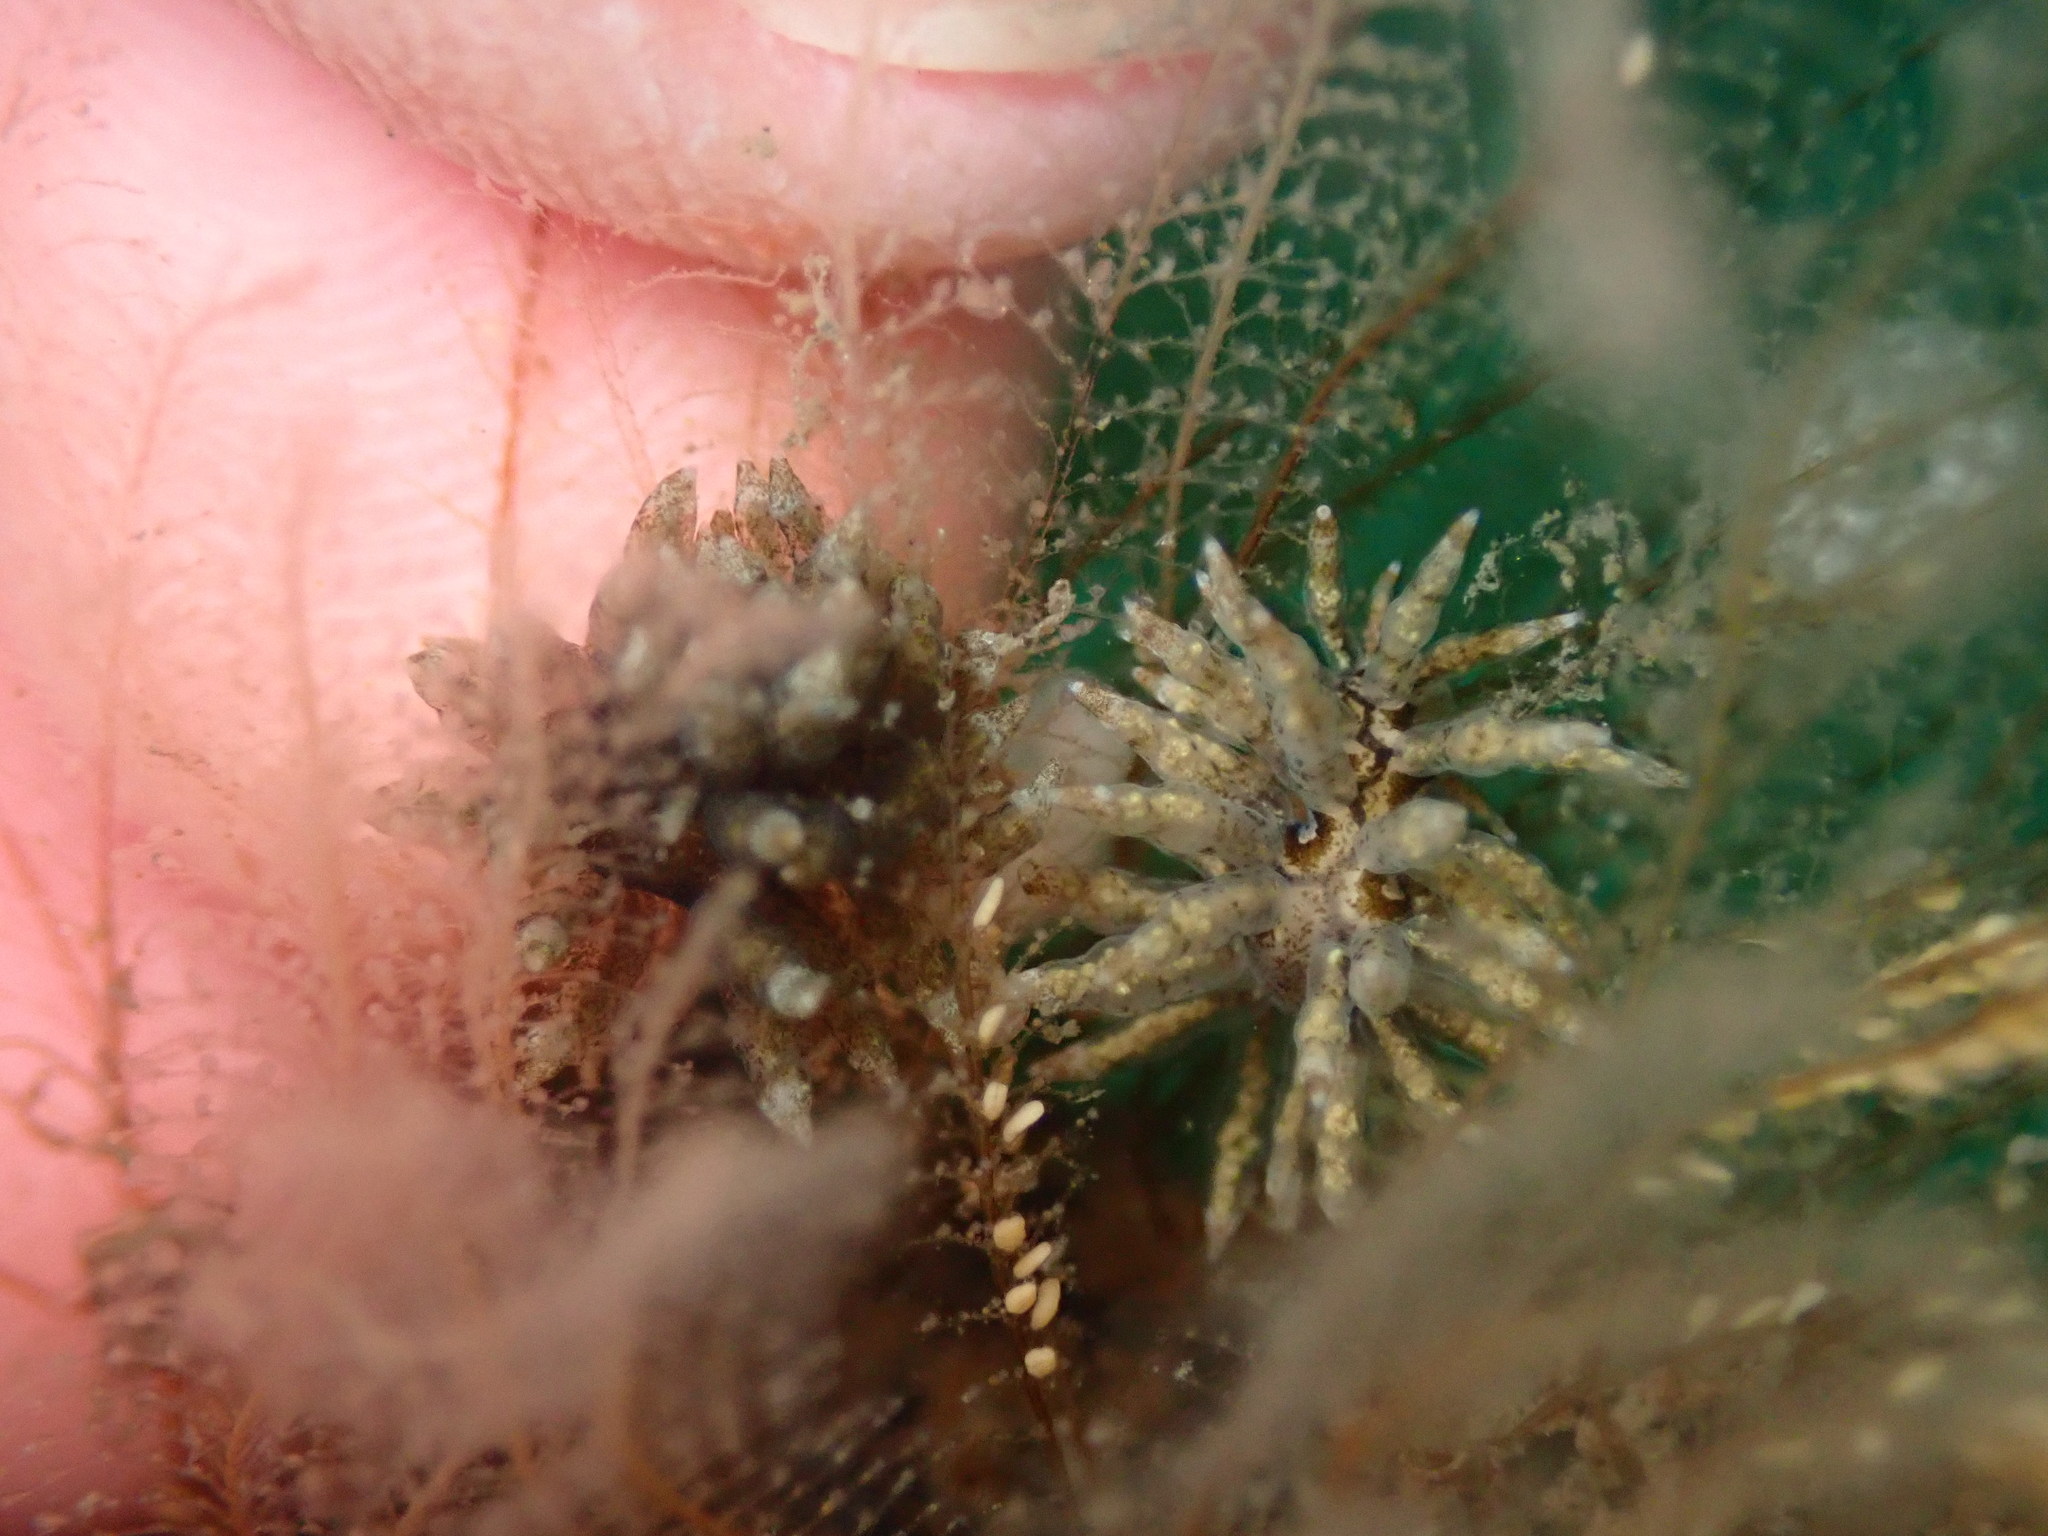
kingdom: Animalia
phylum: Mollusca
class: Gastropoda
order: Nudibranchia
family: Eubranchidae
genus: Eubranchus
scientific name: Eubranchus rustyus
